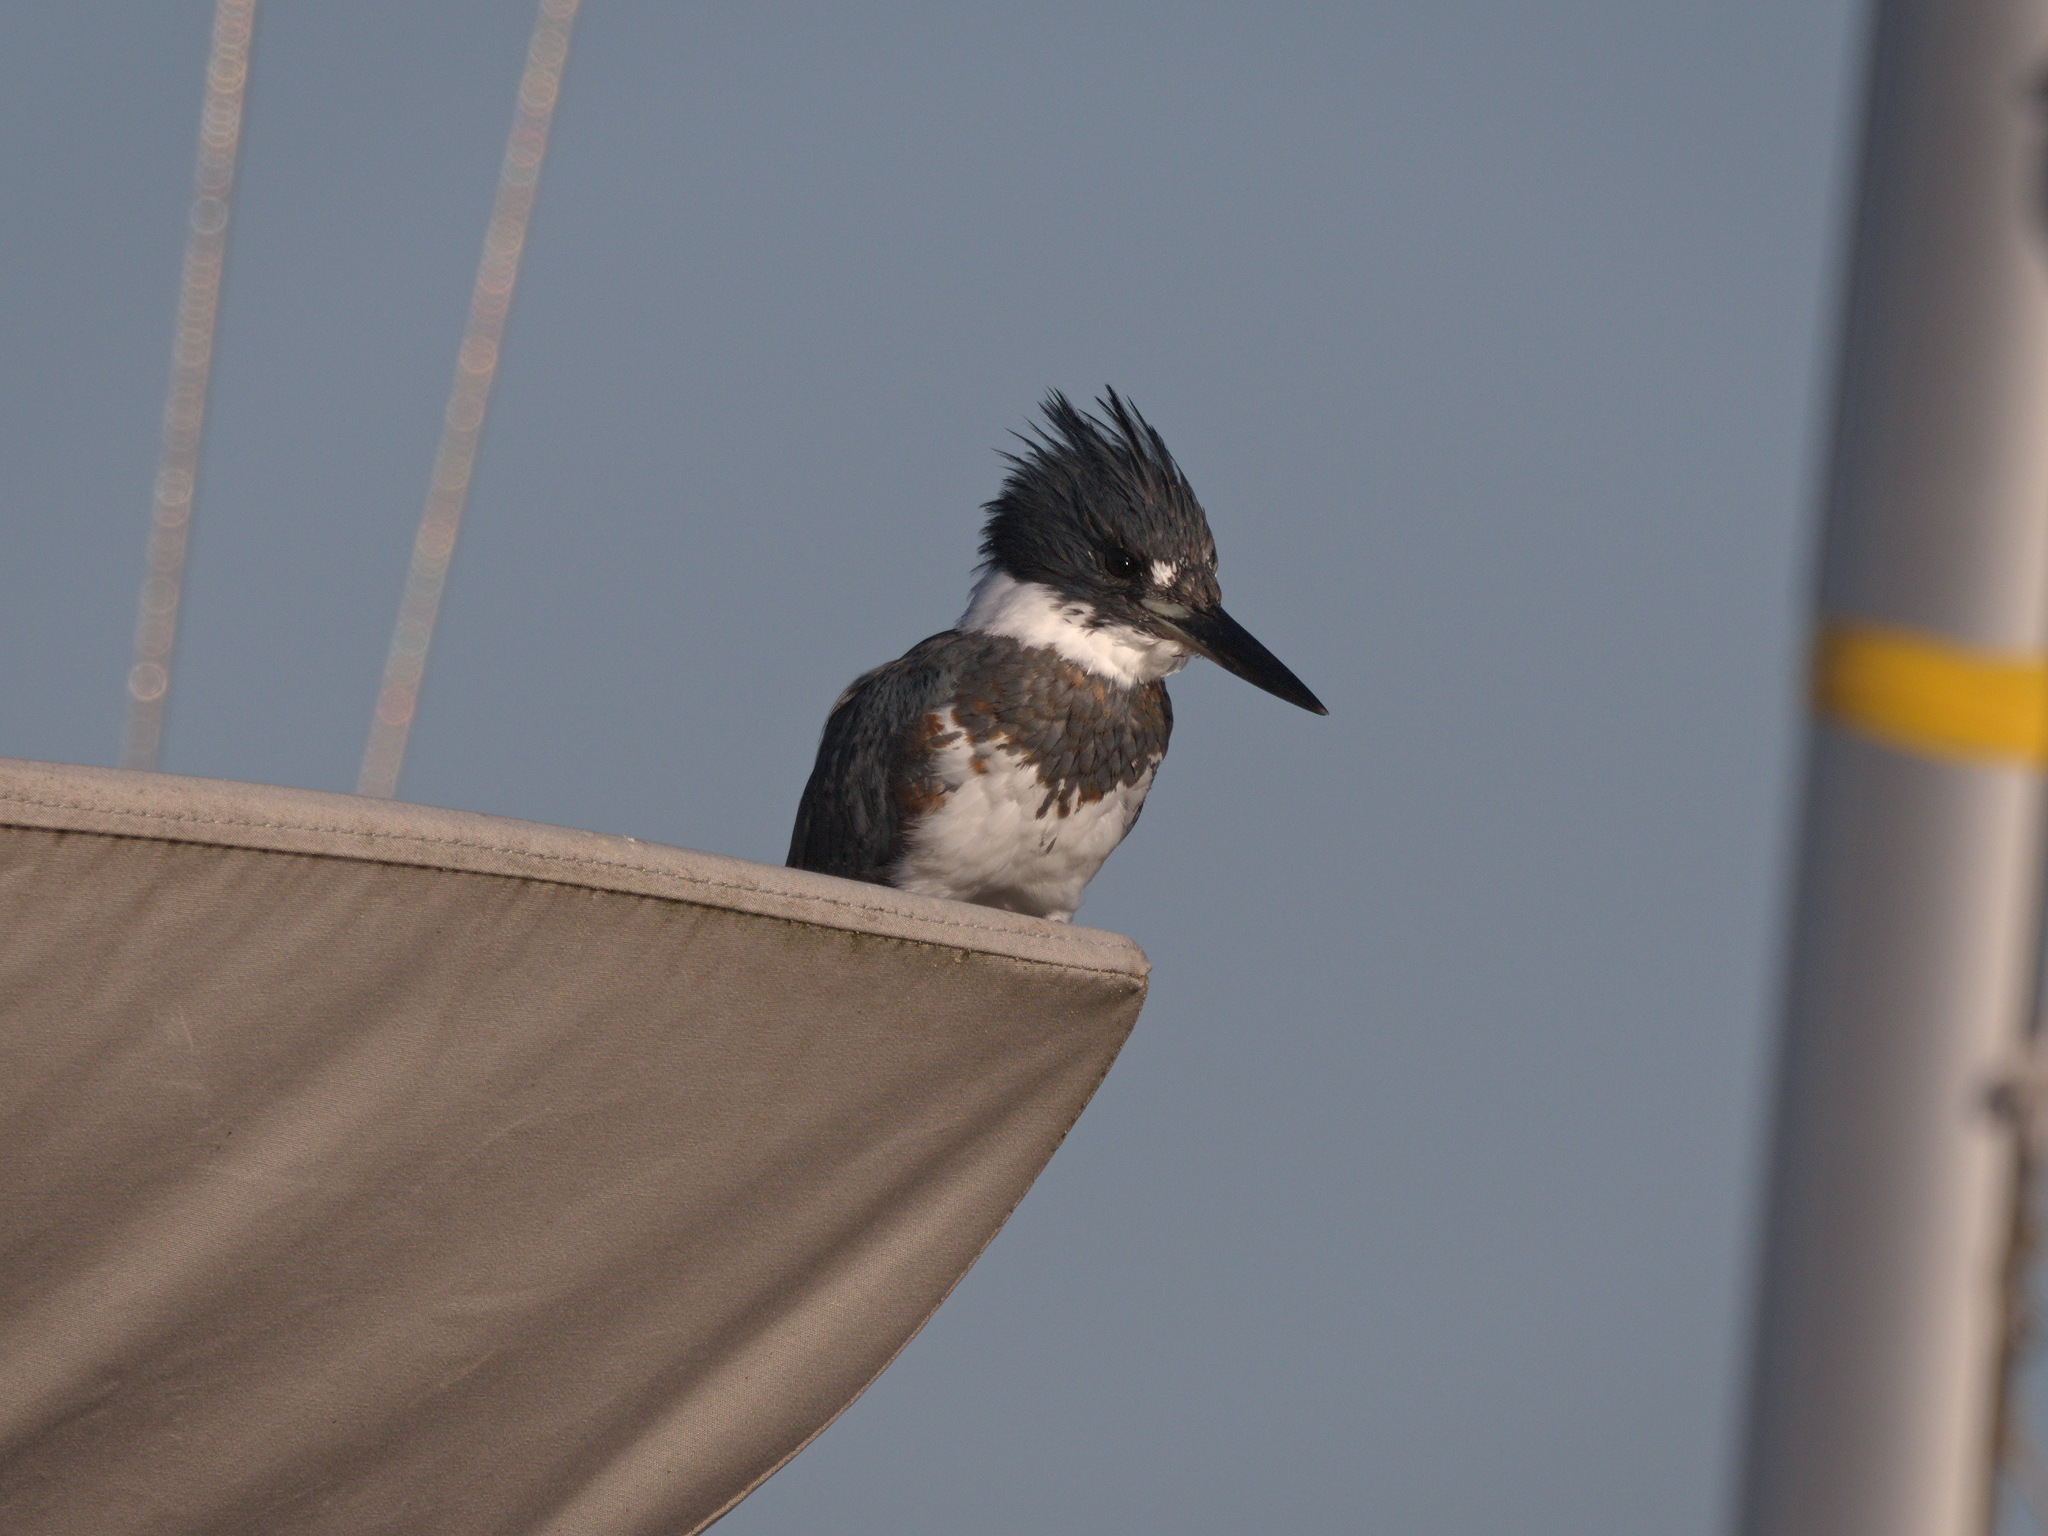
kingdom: Animalia
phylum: Chordata
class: Aves
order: Coraciiformes
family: Alcedinidae
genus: Megaceryle
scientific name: Megaceryle alcyon
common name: Belted kingfisher
